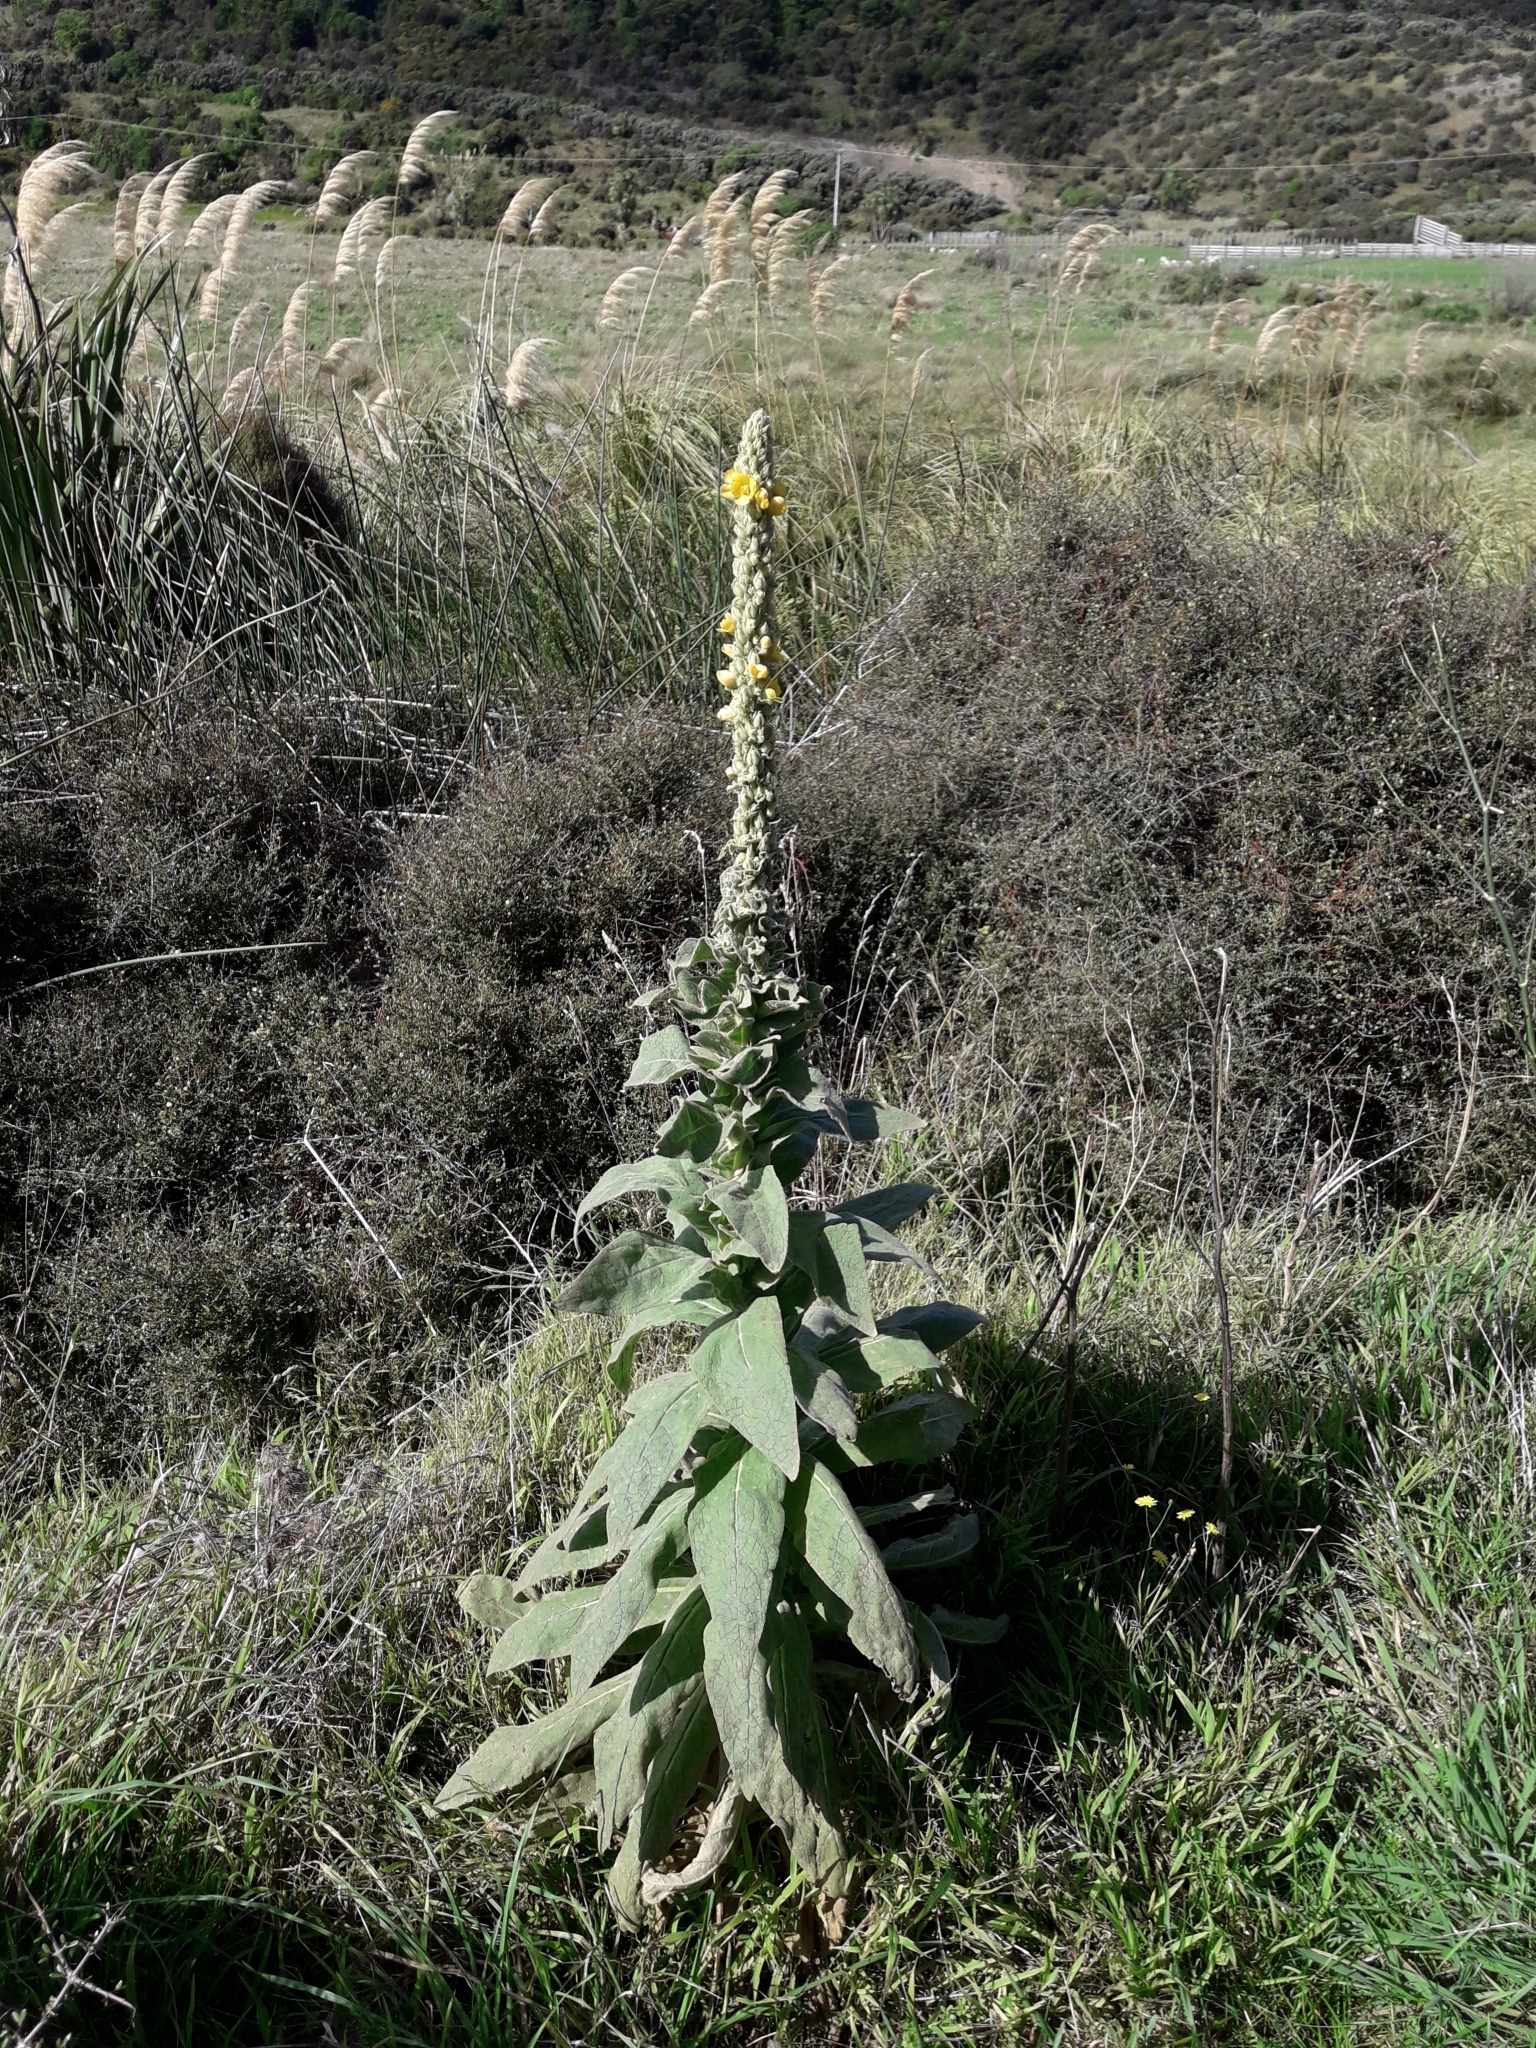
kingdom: Plantae
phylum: Tracheophyta
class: Magnoliopsida
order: Lamiales
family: Scrophulariaceae
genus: Verbascum
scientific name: Verbascum thapsus
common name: Common mullein
